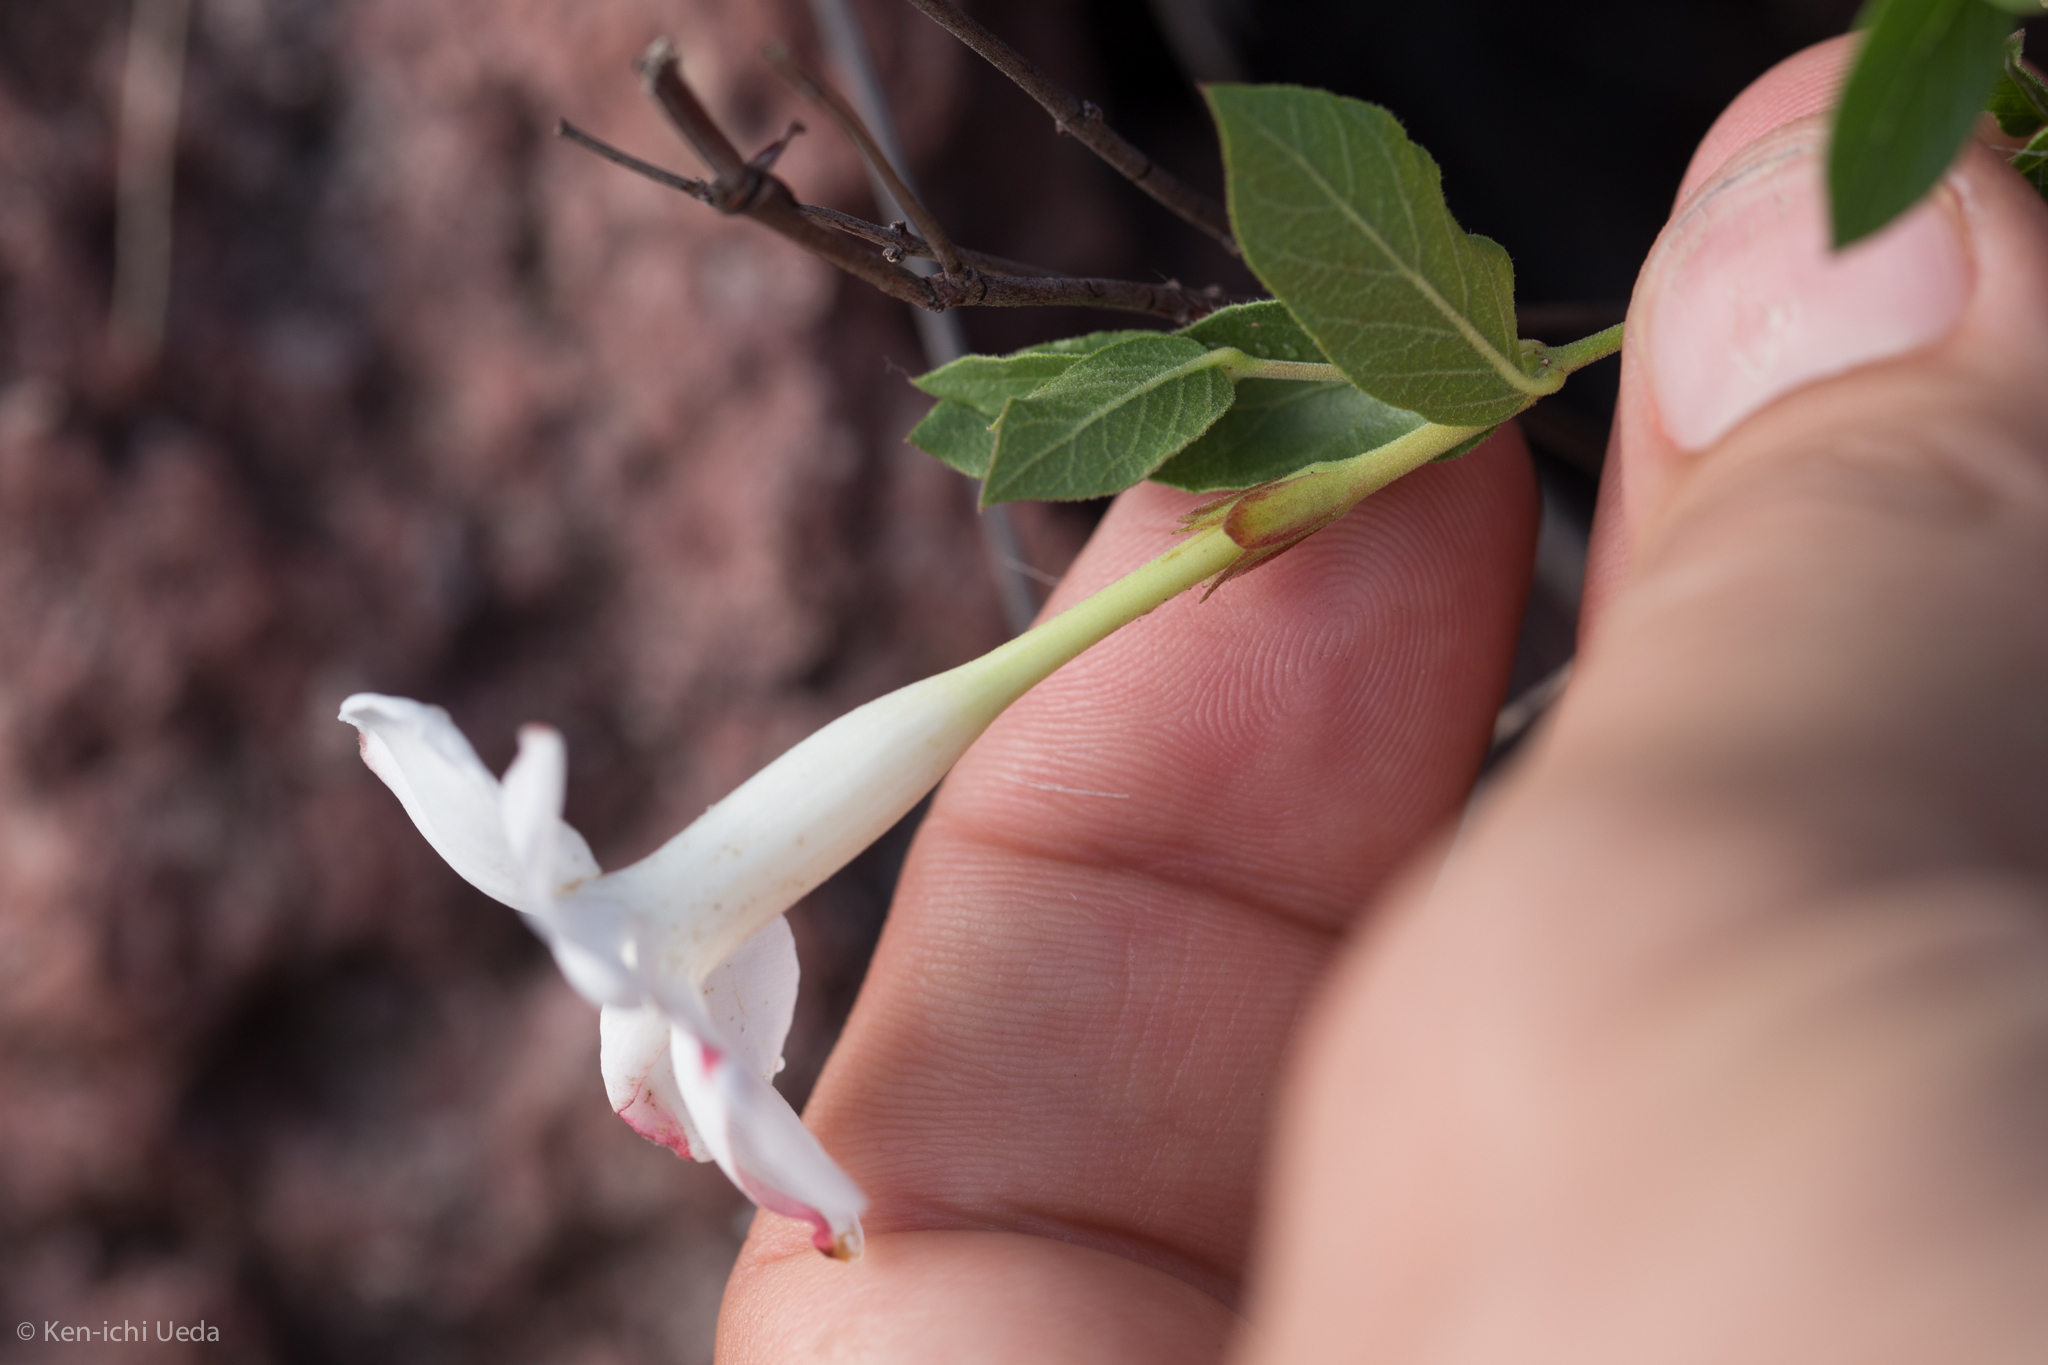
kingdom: Plantae
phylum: Tracheophyta
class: Magnoliopsida
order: Gentianales
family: Apocynaceae
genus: Mandevilla
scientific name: Mandevilla brachysiphon
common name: Huachuca mountain rocktrumpet
